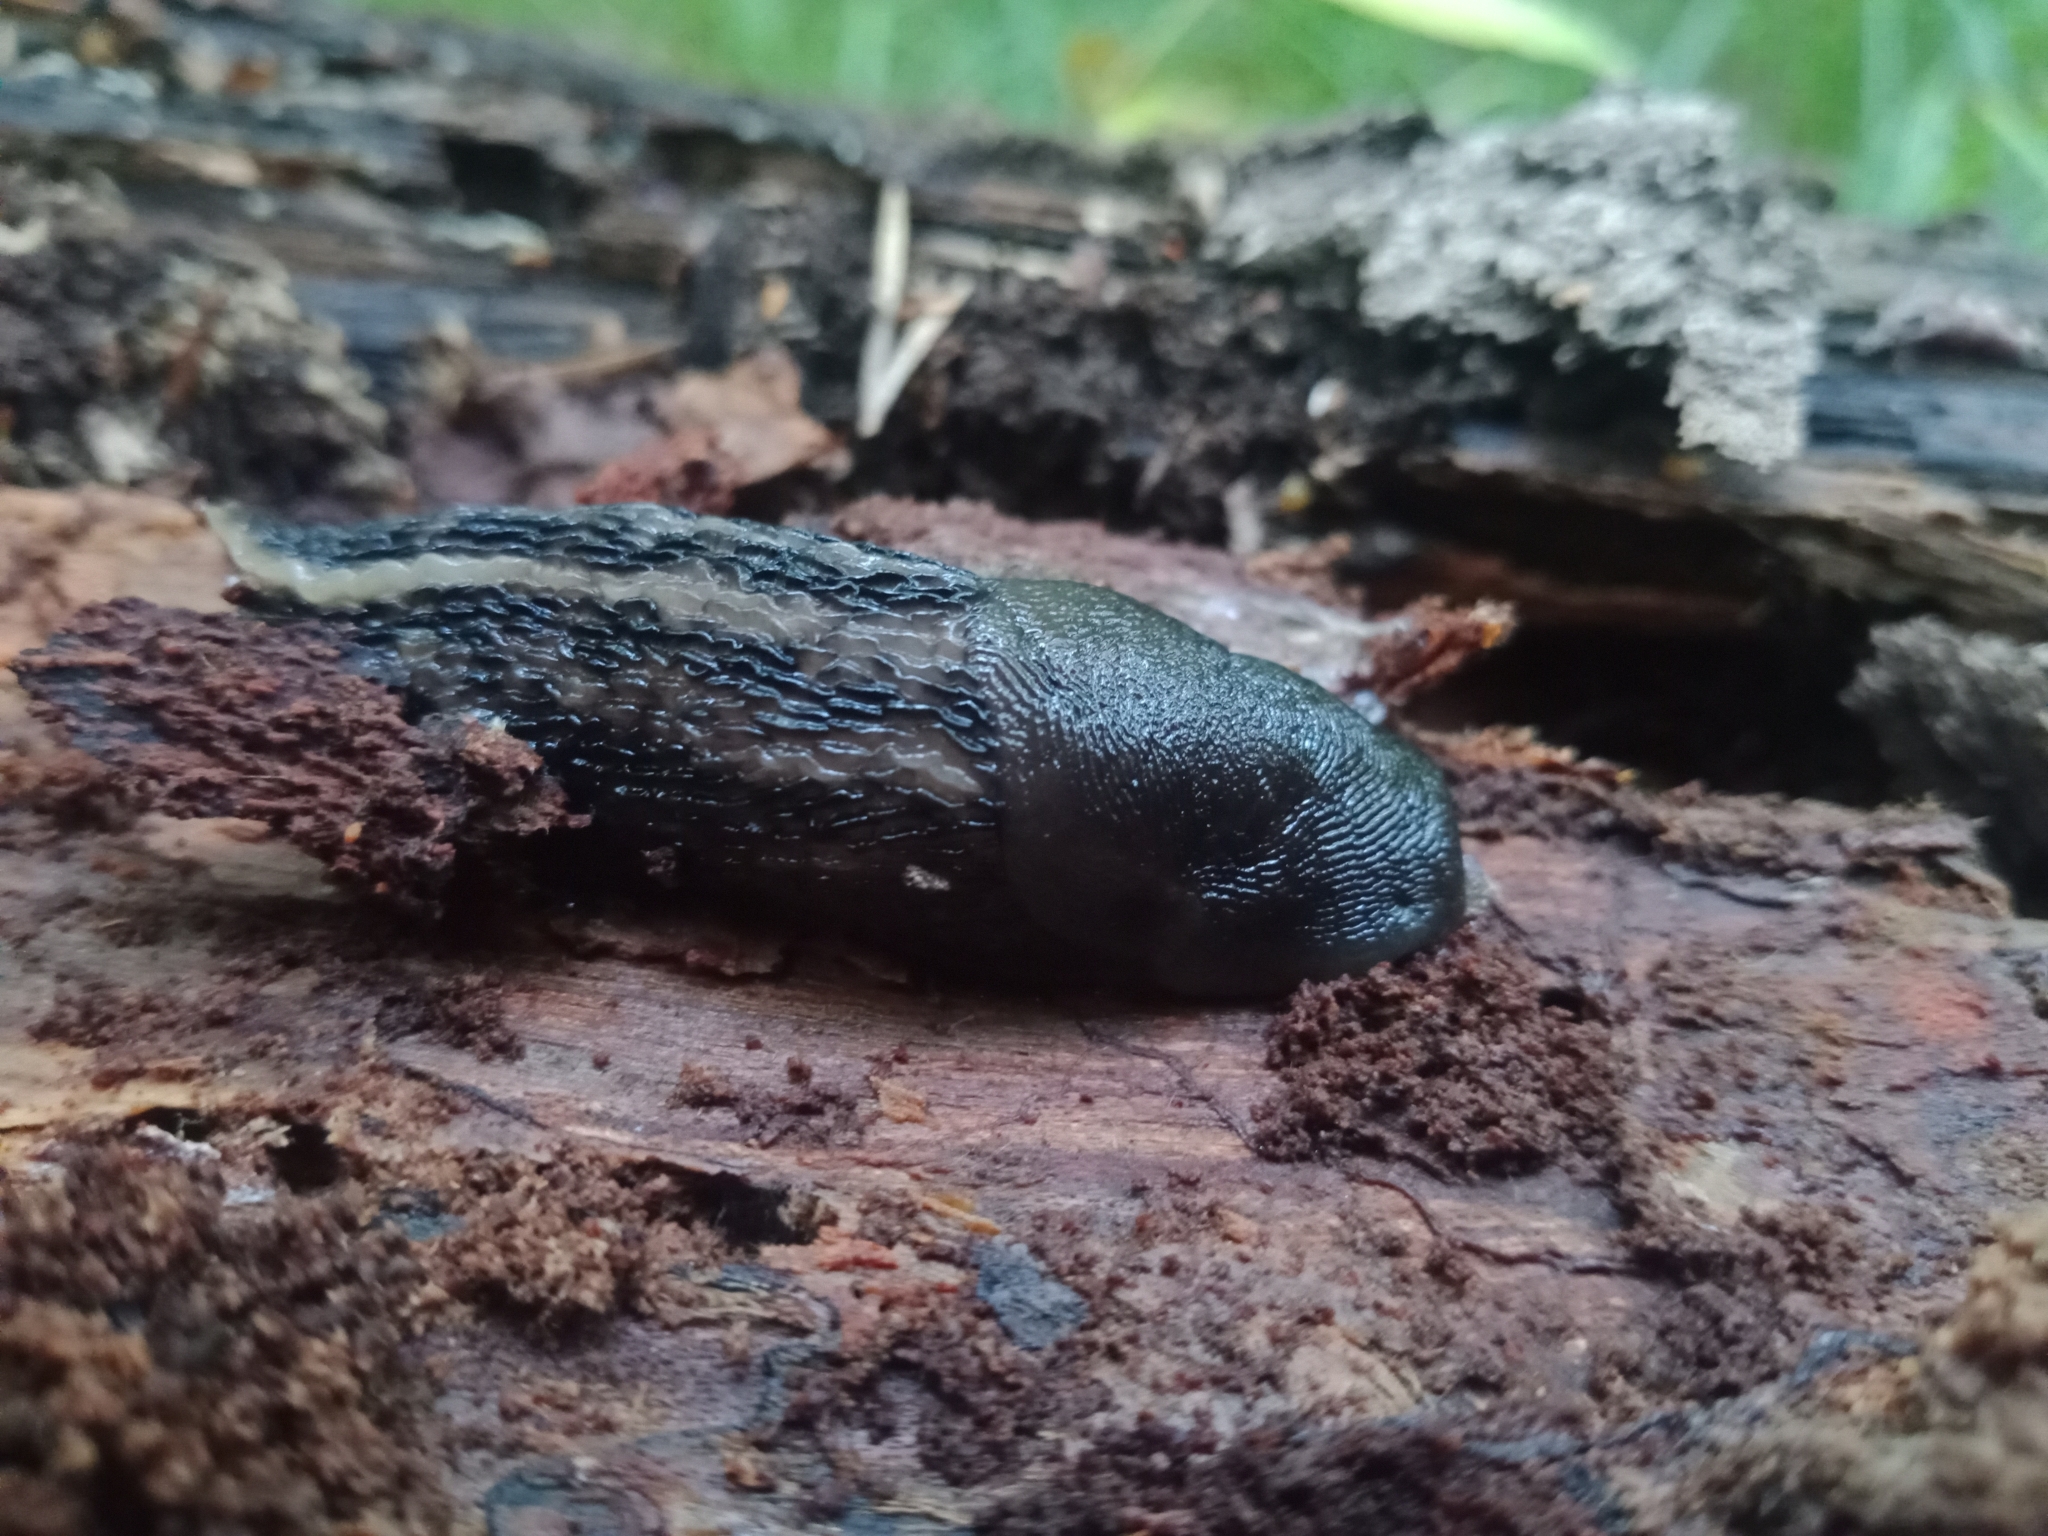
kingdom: Animalia
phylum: Mollusca
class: Gastropoda
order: Stylommatophora
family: Limacidae
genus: Limax
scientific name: Limax cinereoniger
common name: Ash-black slug
